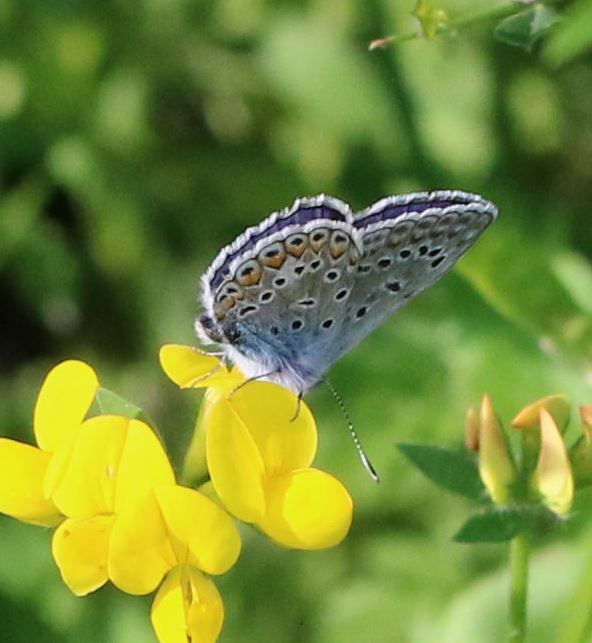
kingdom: Animalia
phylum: Arthropoda
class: Insecta
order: Lepidoptera
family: Lycaenidae
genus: Polyommatus
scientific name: Polyommatus icarus
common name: Common blue
